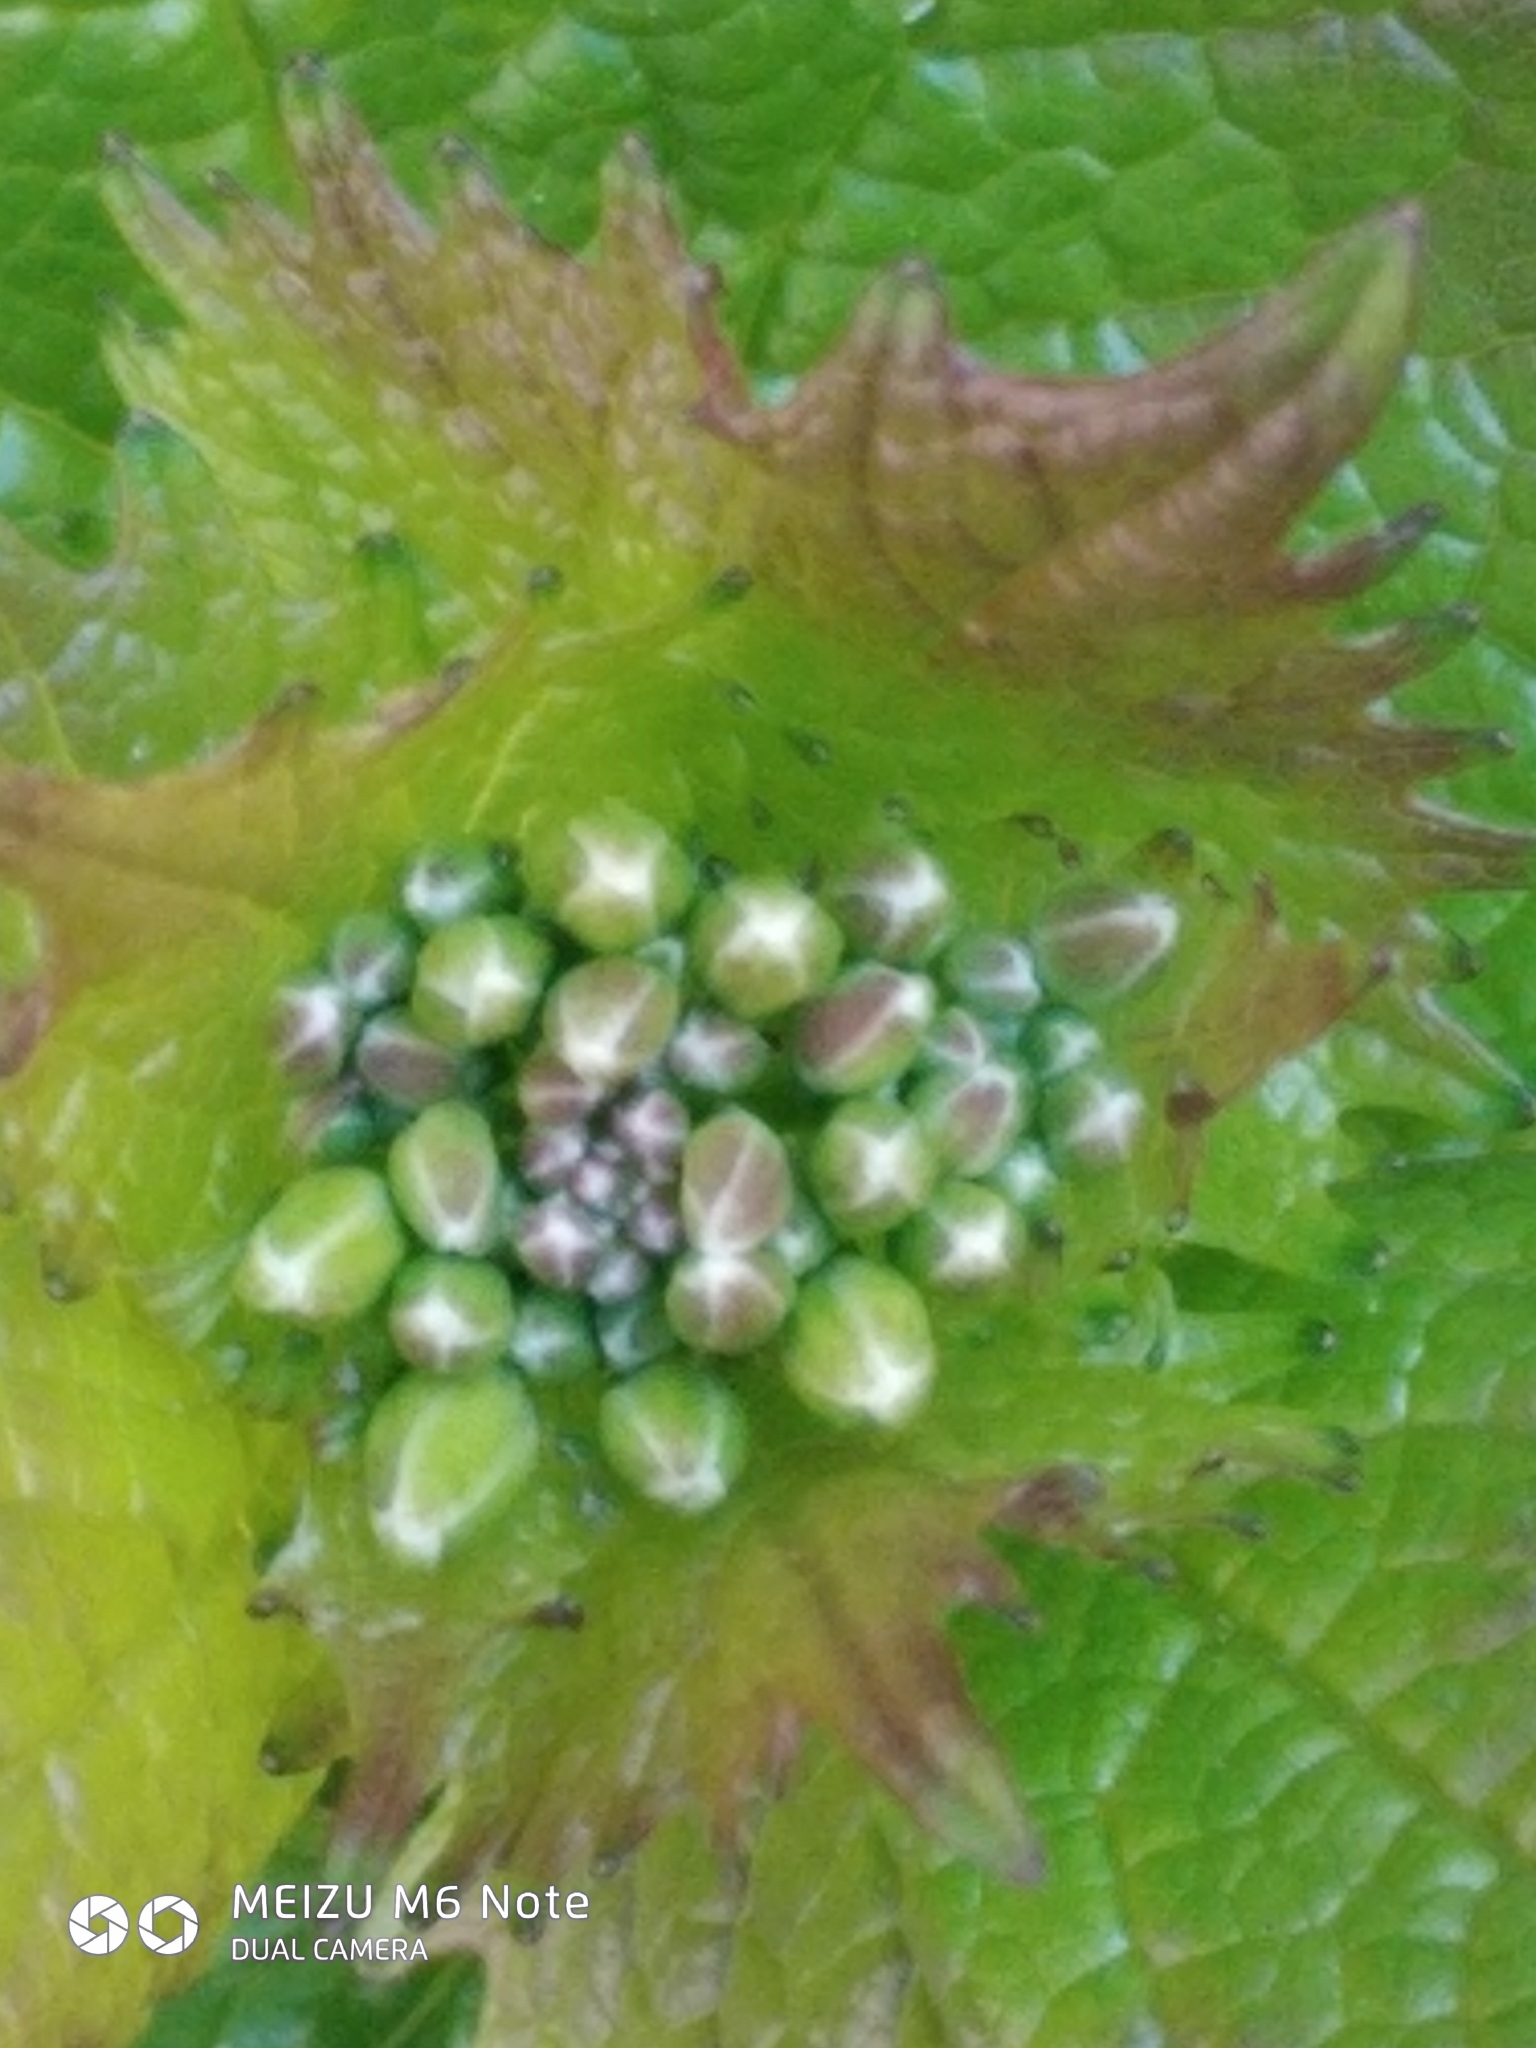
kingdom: Plantae
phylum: Tracheophyta
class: Magnoliopsida
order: Brassicales
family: Brassicaceae
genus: Alliaria
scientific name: Alliaria petiolata
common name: Garlic mustard
